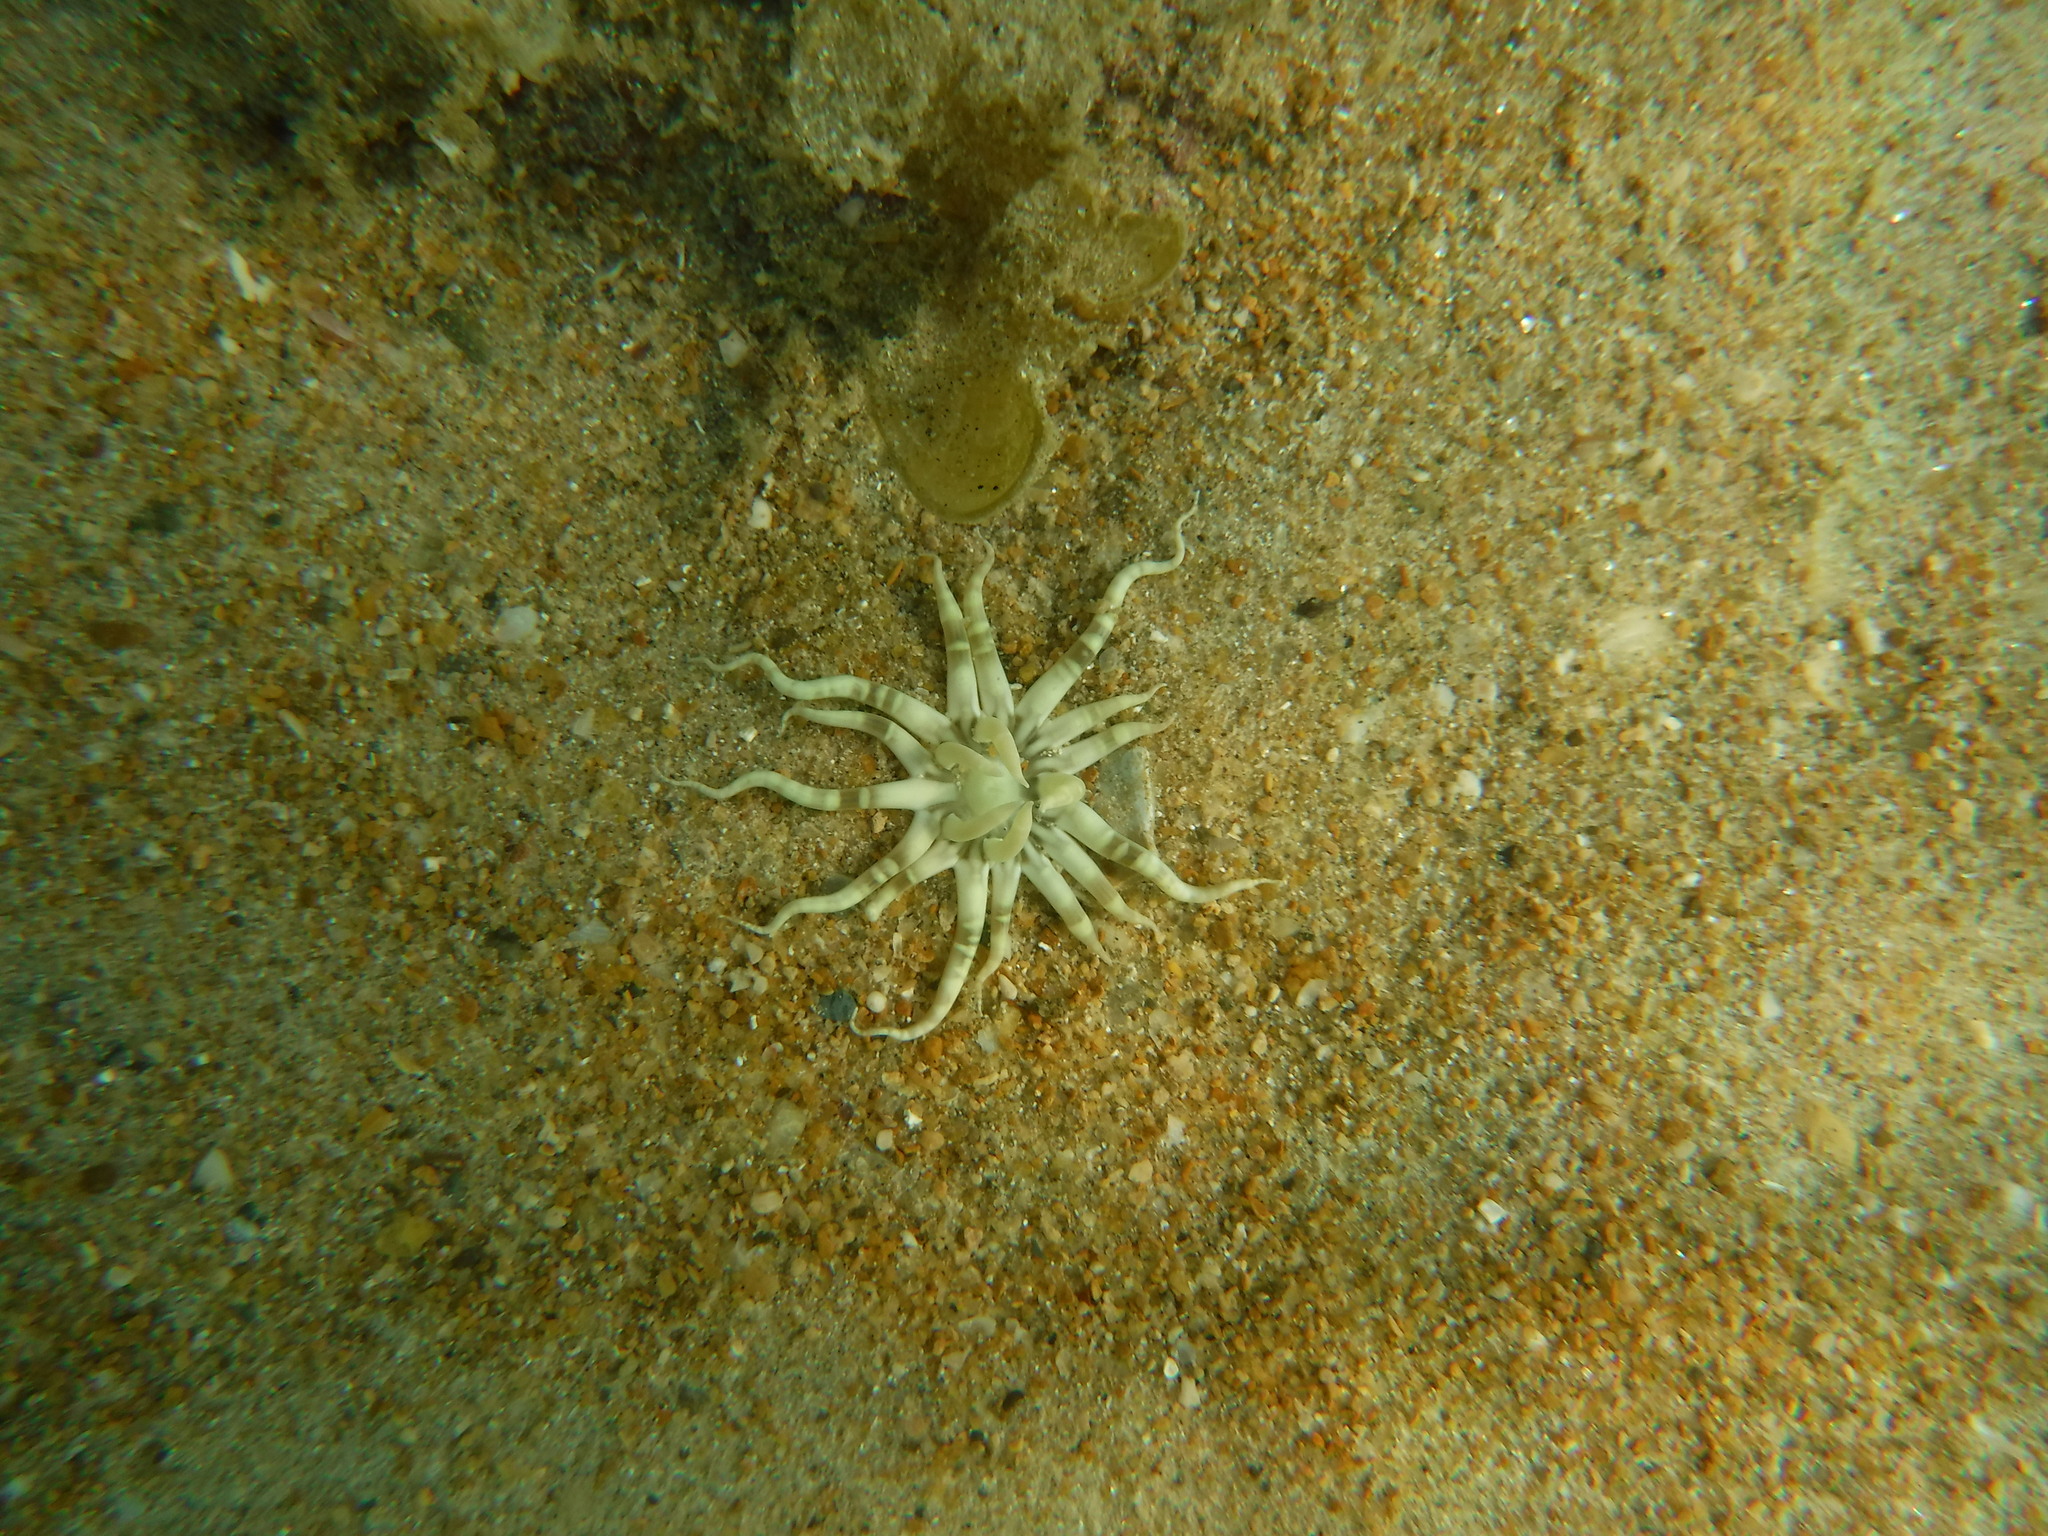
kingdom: Animalia
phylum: Cnidaria
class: Anthozoa
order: Actiniaria
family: Edwardsiidae
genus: Edwardsianthus
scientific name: Edwardsianthus pudicus
